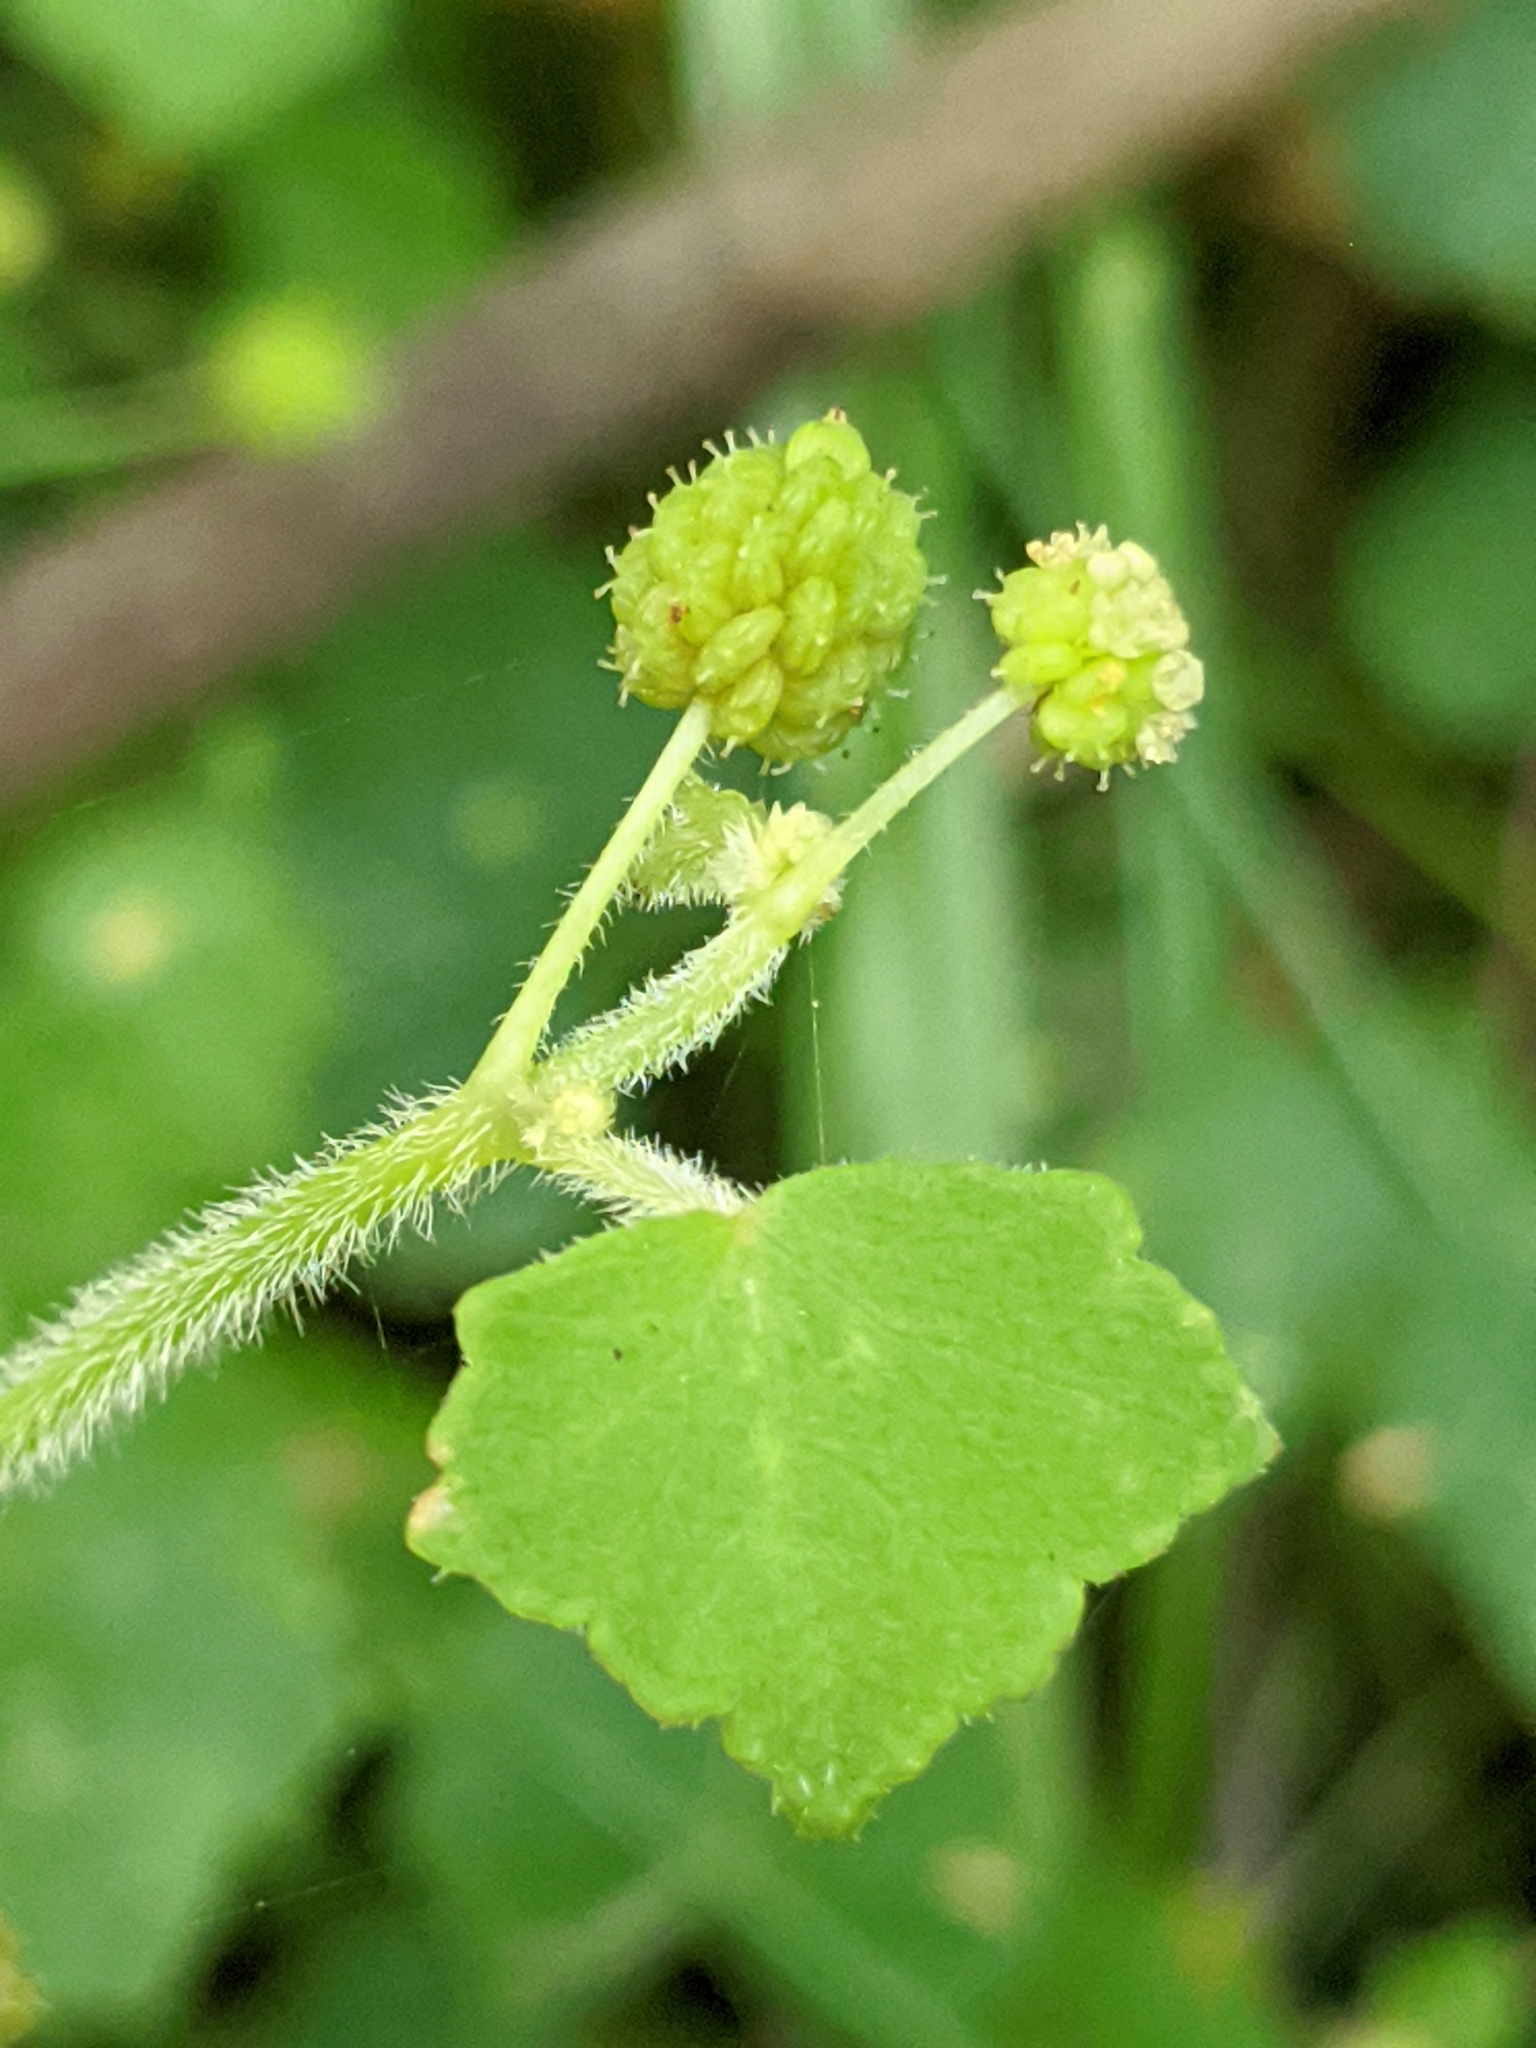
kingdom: Plantae
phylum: Tracheophyta
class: Magnoliopsida
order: Apiales
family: Araliaceae
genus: Hydrocotyle
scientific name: Hydrocotyle bowlesioides
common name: Largeleaf marshpennywort
